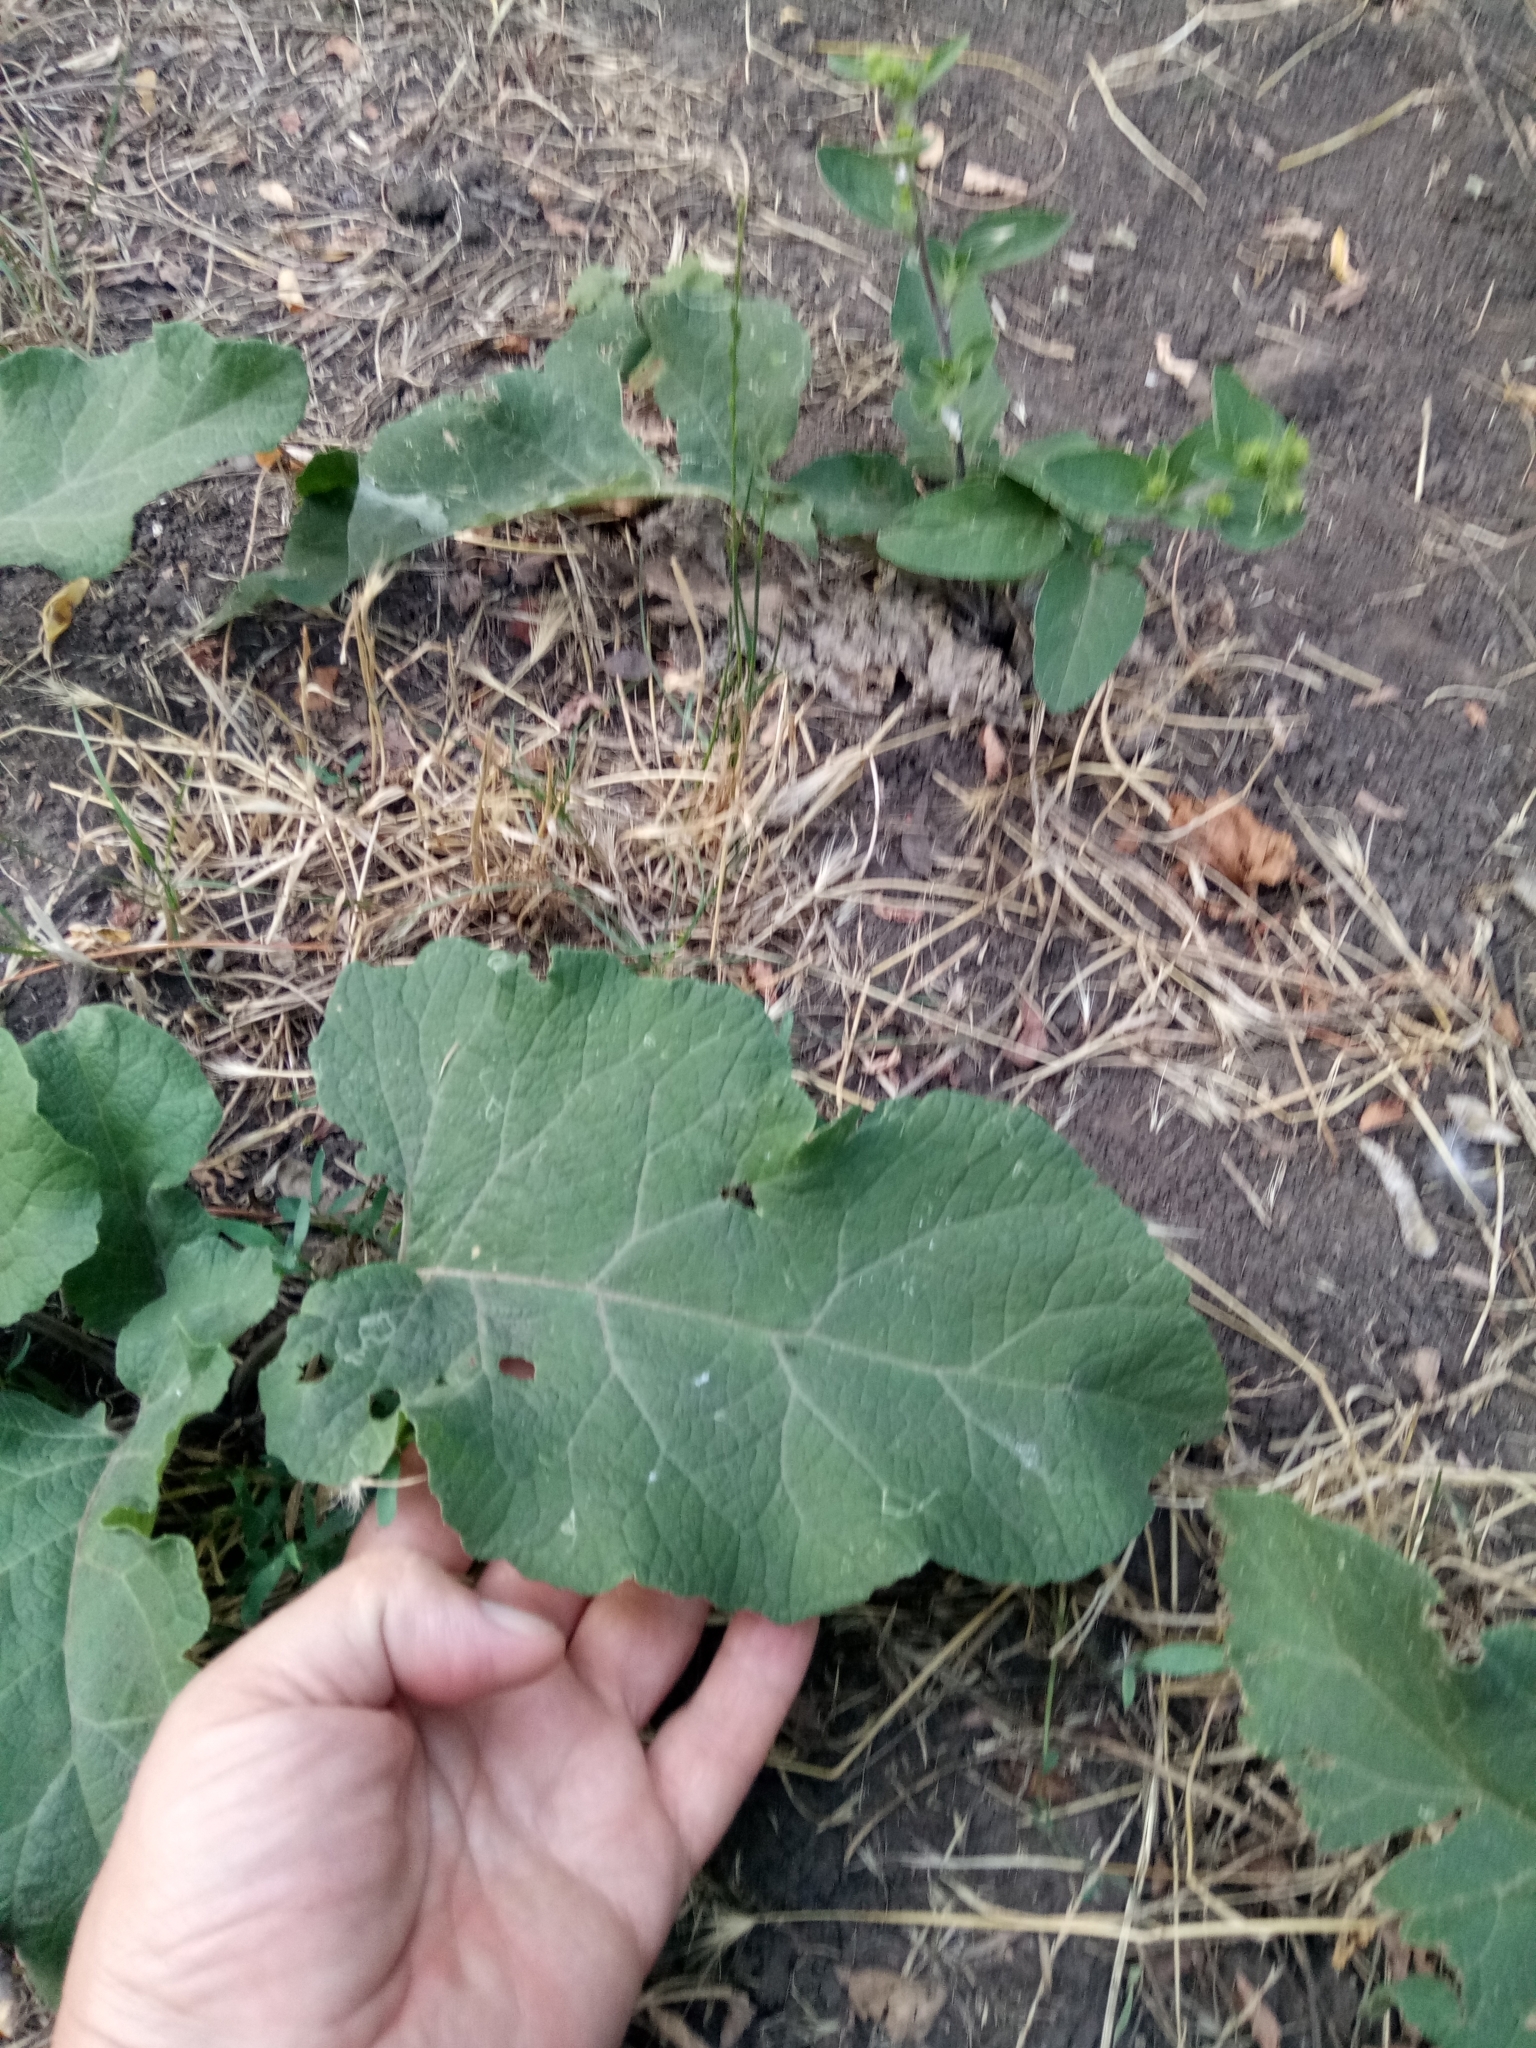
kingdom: Plantae
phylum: Tracheophyta
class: Magnoliopsida
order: Asterales
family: Asteraceae
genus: Arctium
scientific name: Arctium lappa
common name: Greater burdock
